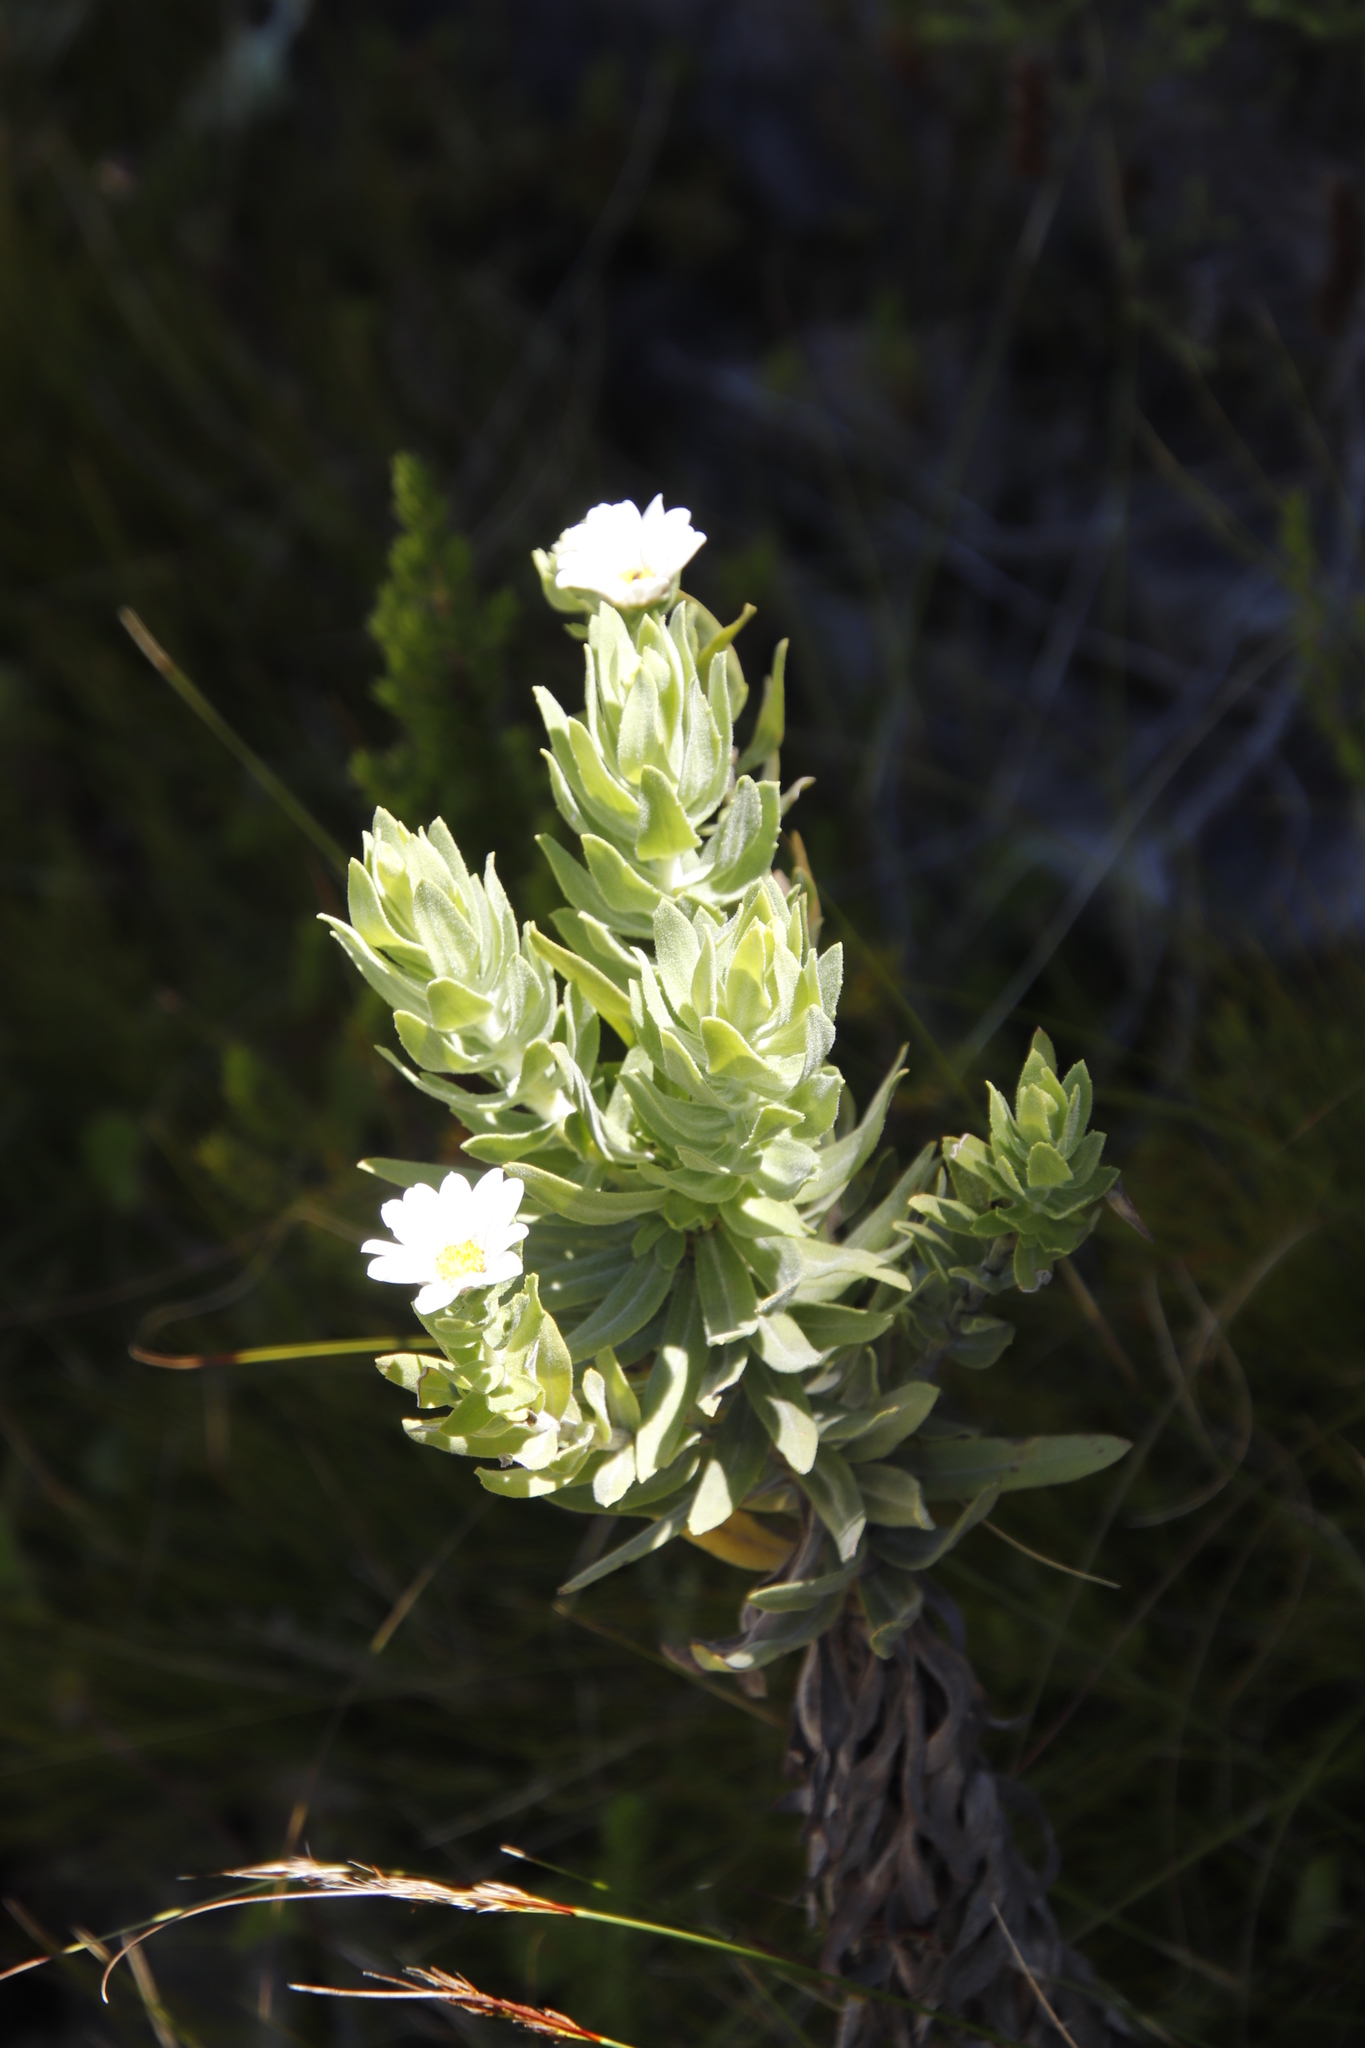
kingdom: Plantae
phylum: Tracheophyta
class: Magnoliopsida
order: Asterales
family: Asteraceae
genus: Osmitopsis
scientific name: Osmitopsis asteriscoides
